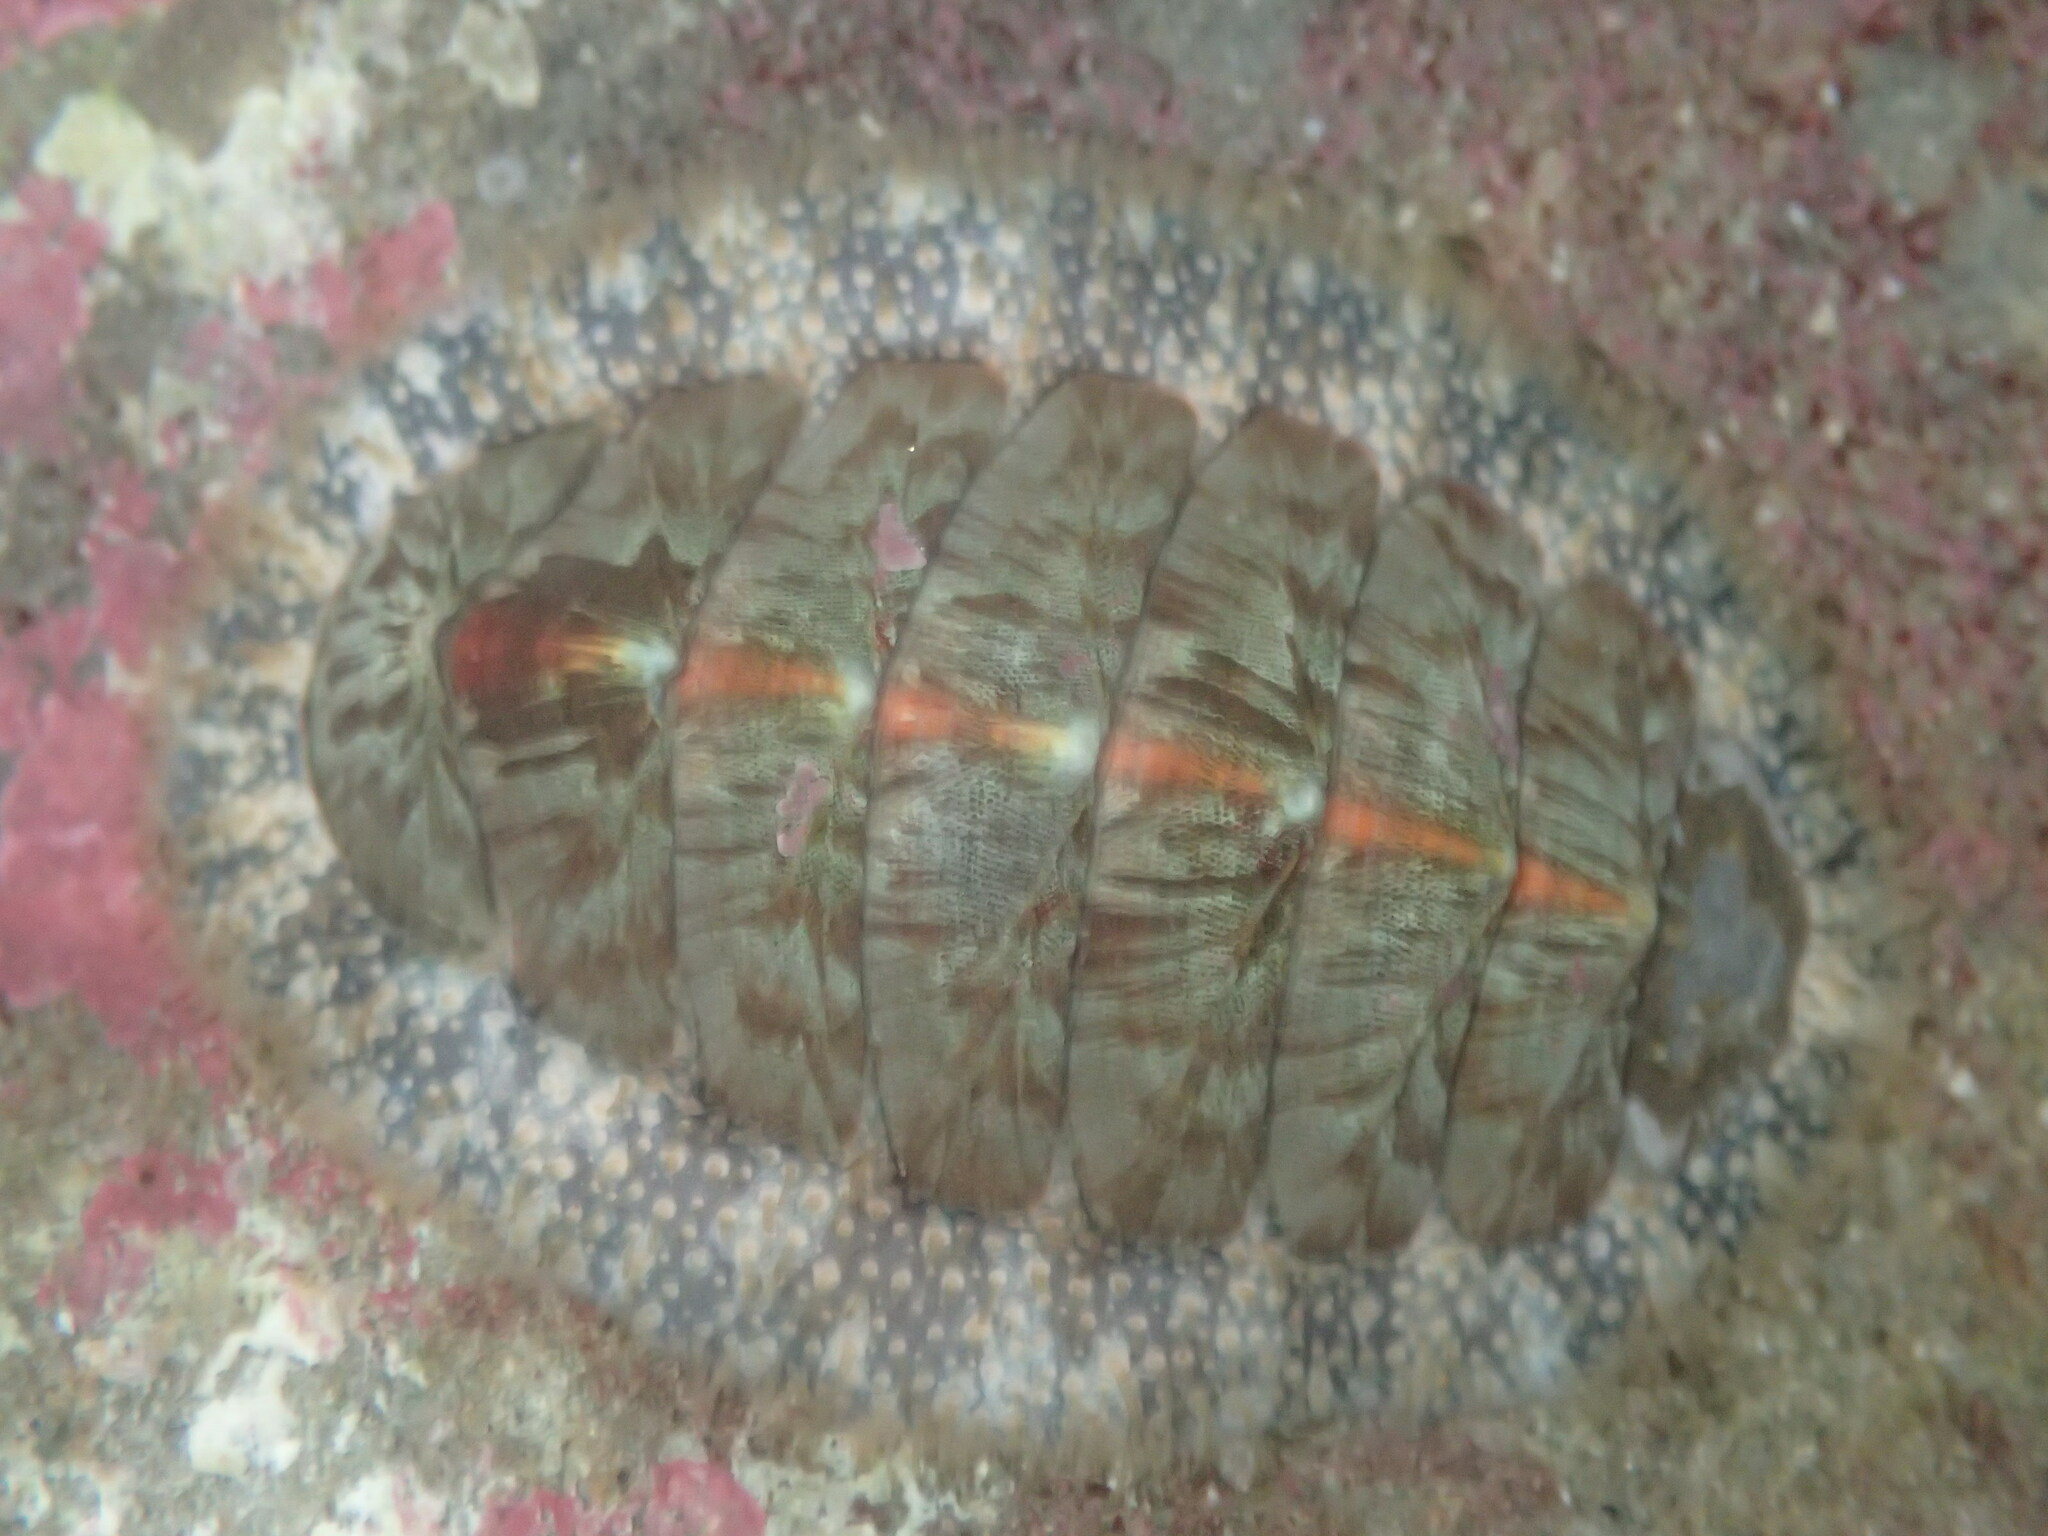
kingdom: Animalia
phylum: Mollusca
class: Polyplacophora
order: Chitonida
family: Mopaliidae
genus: Mopalia
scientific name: Mopalia lignosa
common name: Woody chiton
